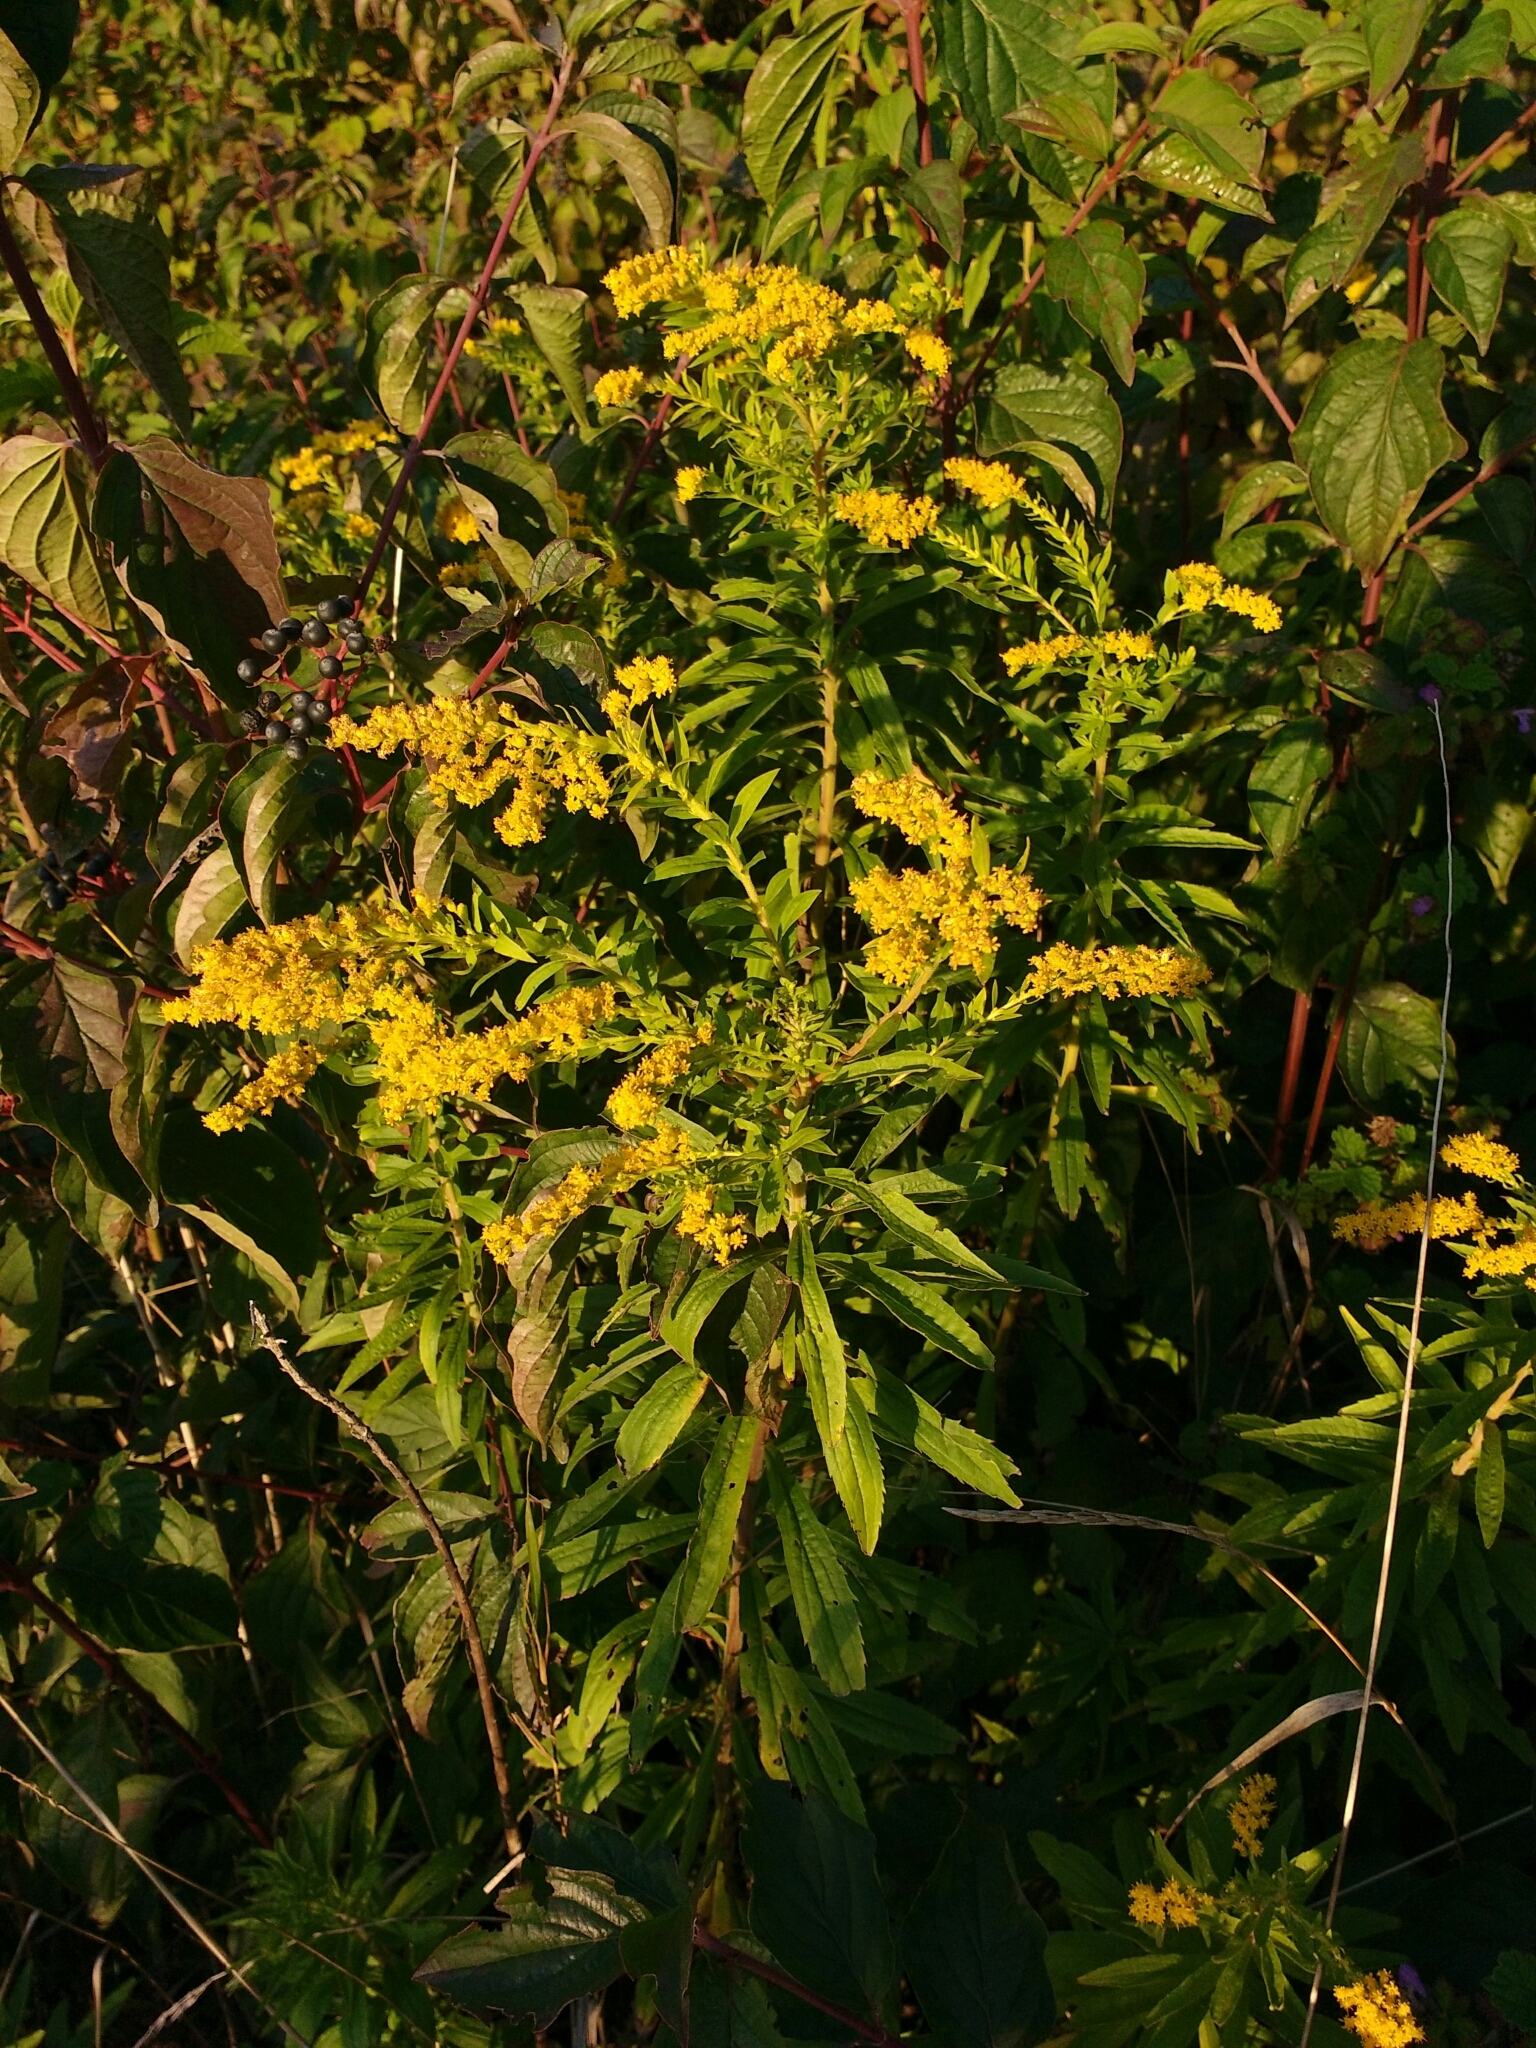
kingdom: Plantae
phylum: Tracheophyta
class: Magnoliopsida
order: Asterales
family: Asteraceae
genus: Solidago
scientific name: Solidago canadensis
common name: Canada goldenrod
